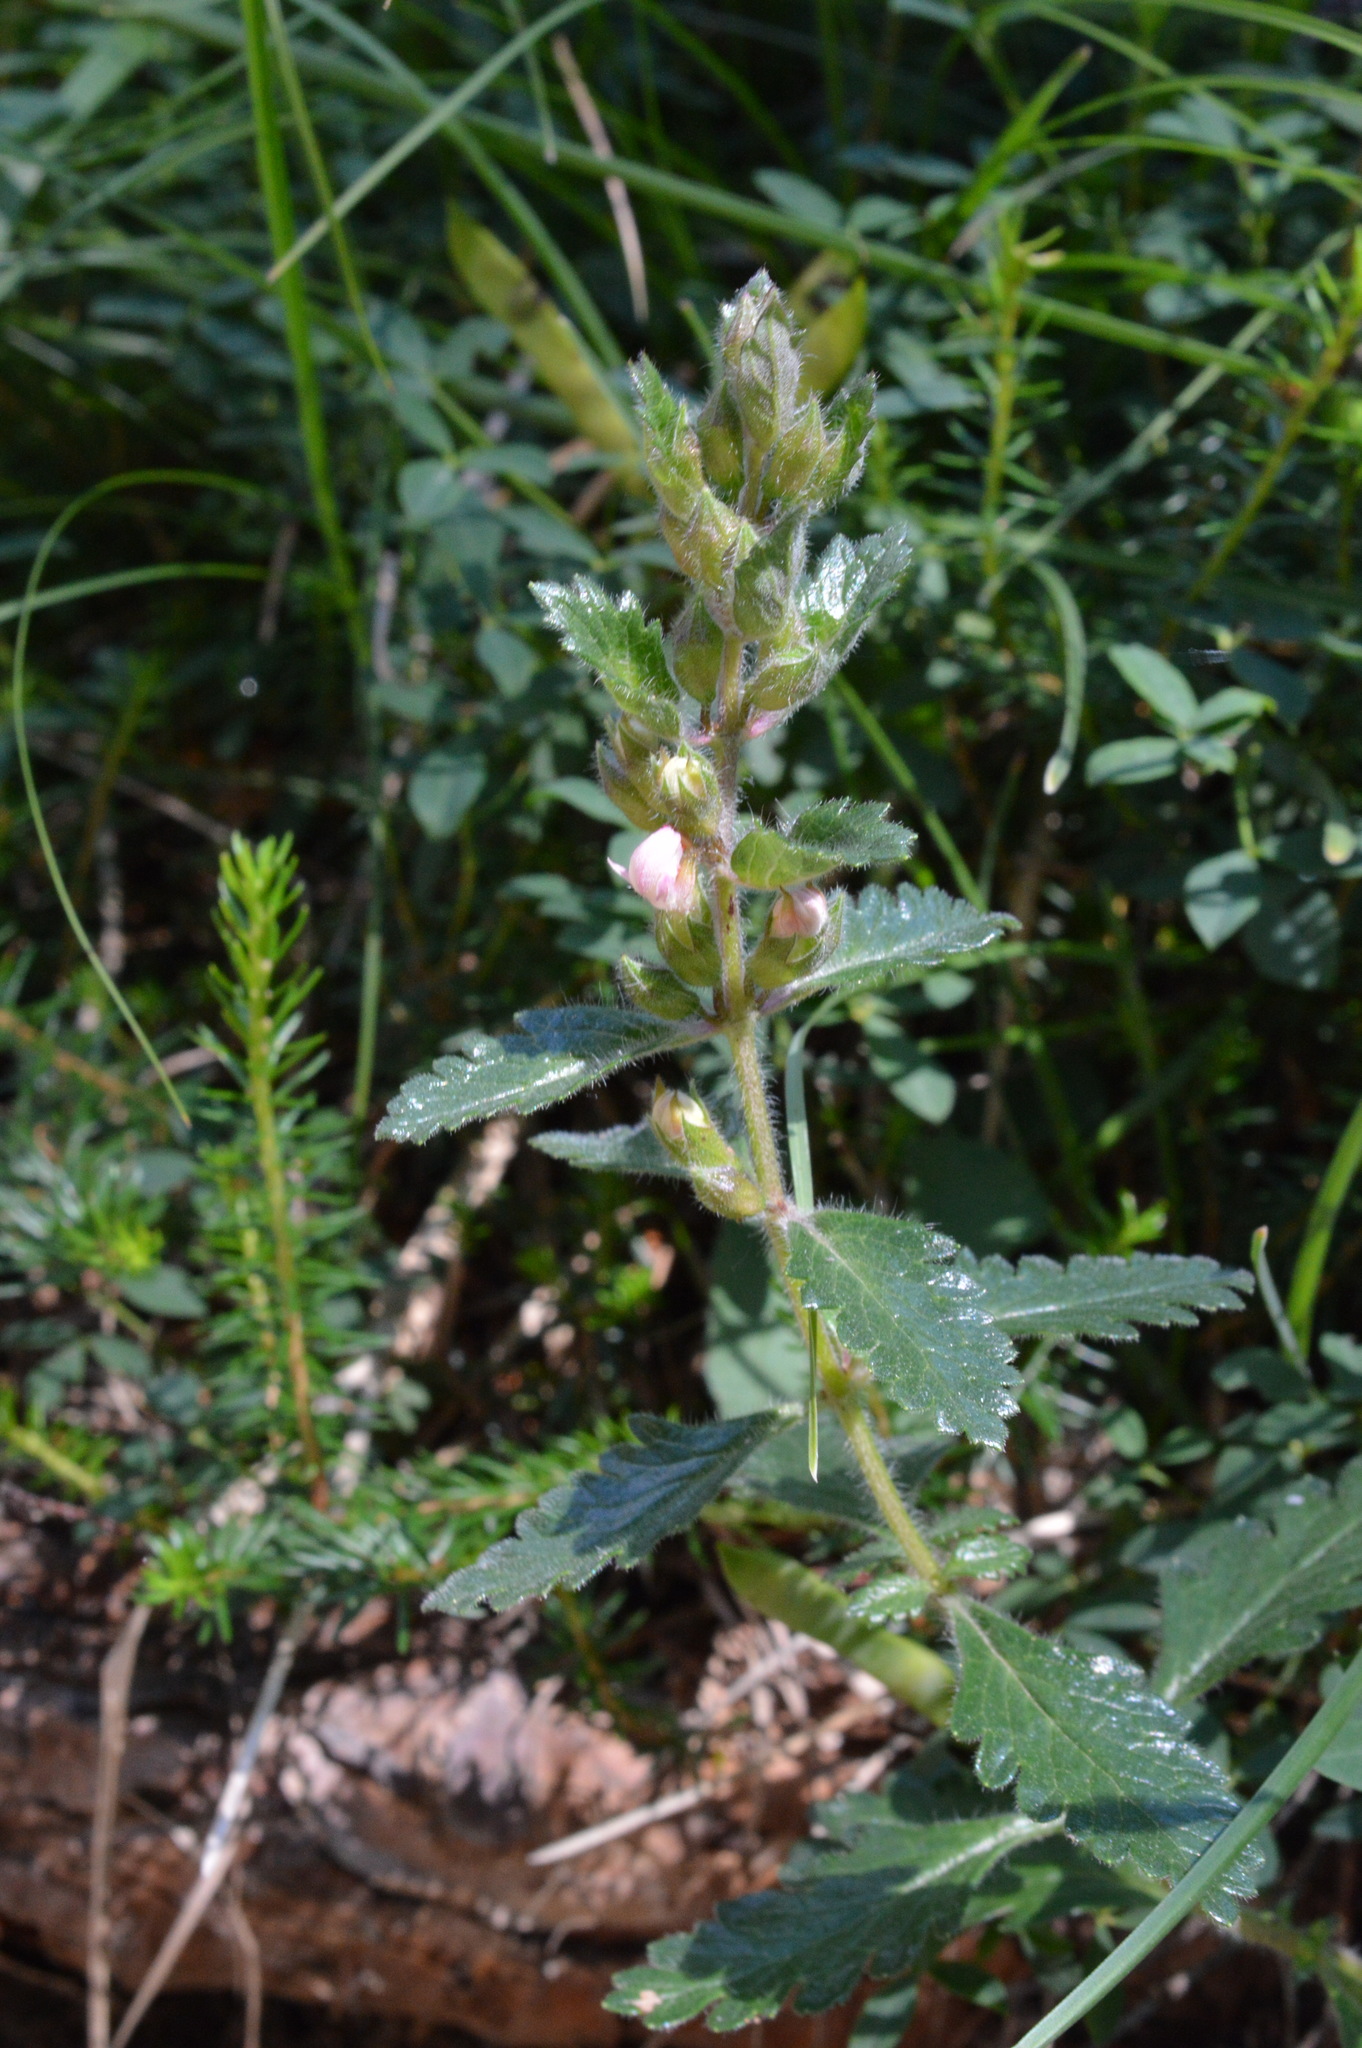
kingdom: Plantae
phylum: Tracheophyta
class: Magnoliopsida
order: Lamiales
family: Lamiaceae
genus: Teucrium
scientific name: Teucrium chamaedrys
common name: Wall germander
